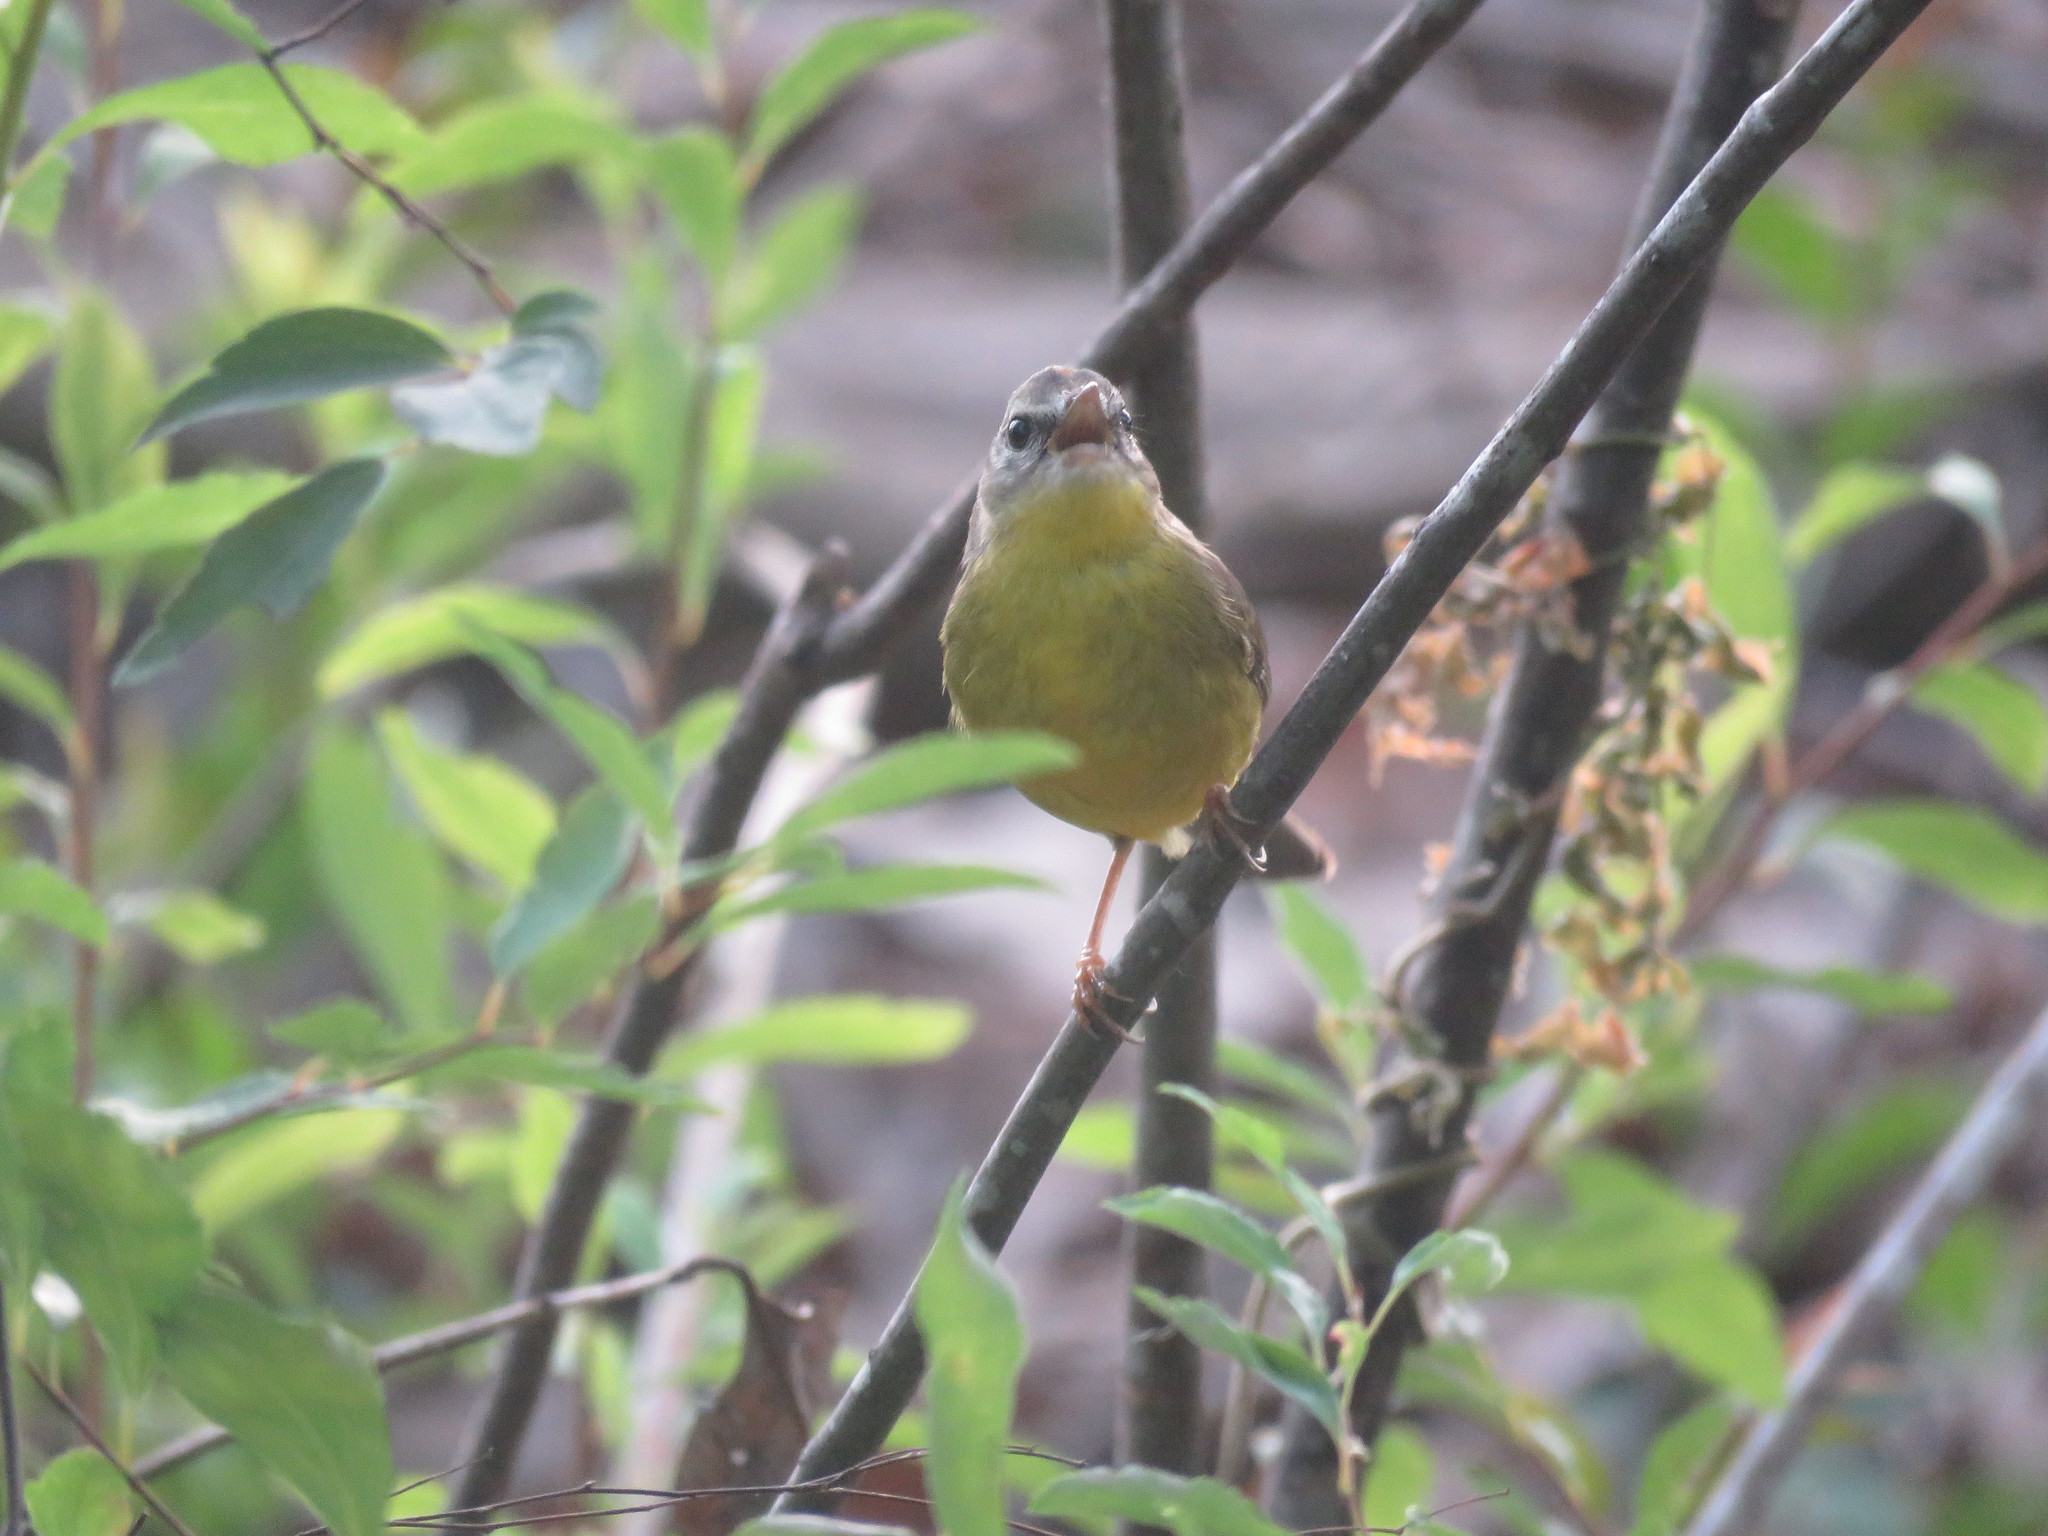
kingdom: Animalia
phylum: Chordata
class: Aves
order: Passeriformes
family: Parulidae
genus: Basileuterus
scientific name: Basileuterus culicivorus
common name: Golden-crowned warbler
